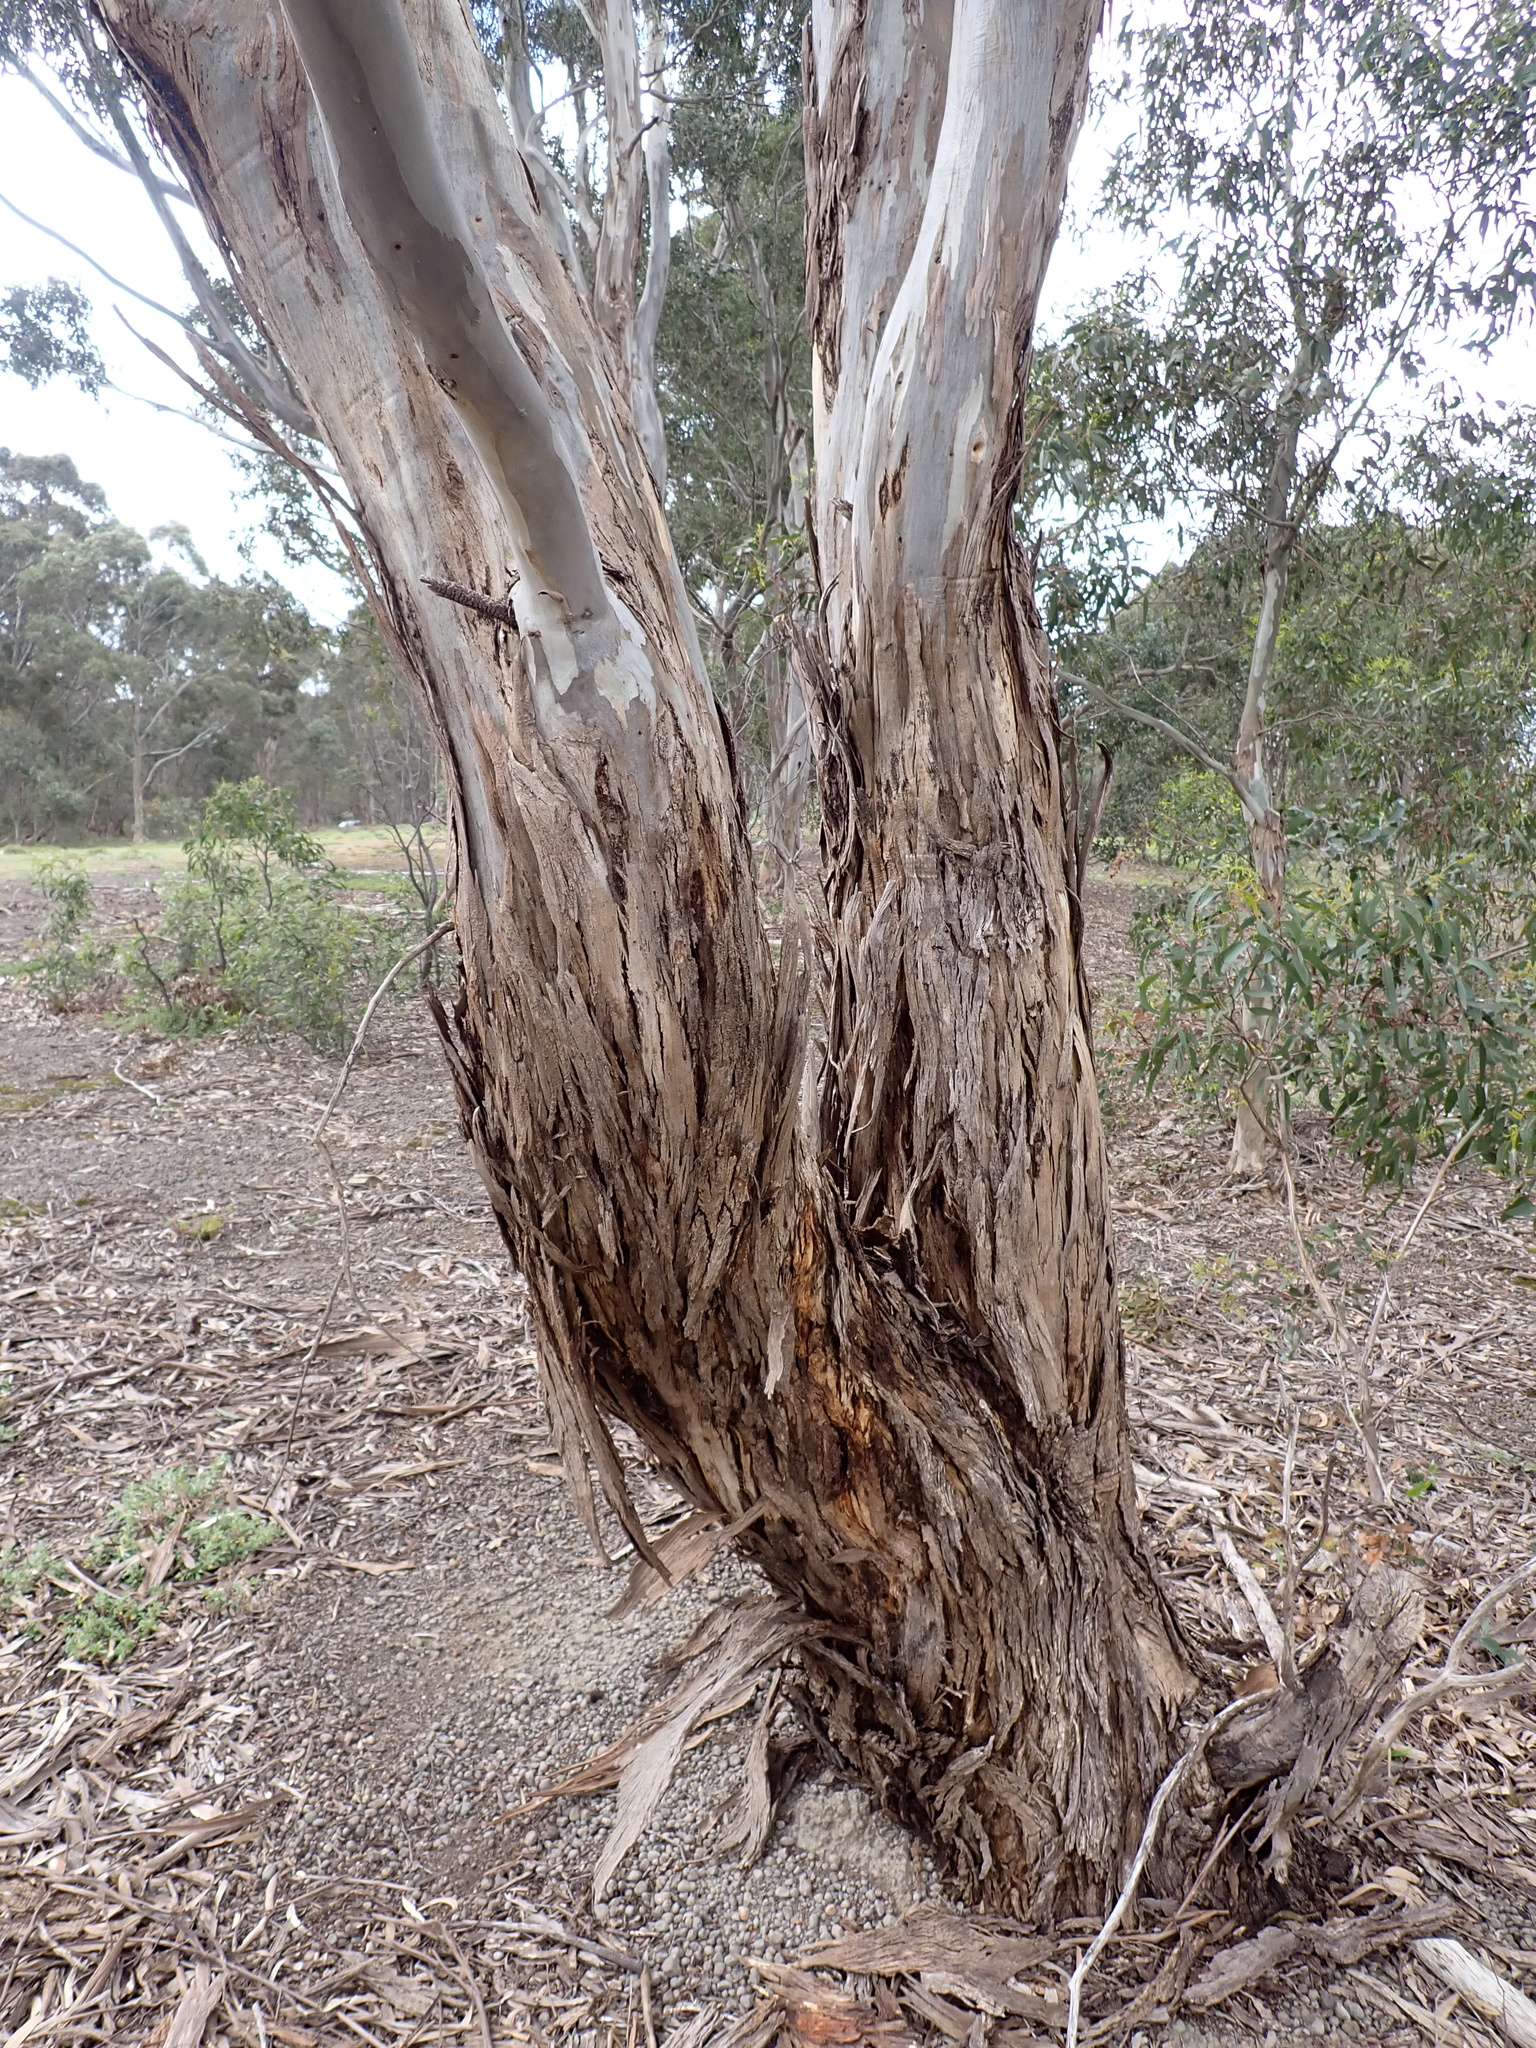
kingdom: Plantae
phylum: Tracheophyta
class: Magnoliopsida
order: Myrtales
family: Myrtaceae
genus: Eucalyptus
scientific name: Eucalyptus leucoxylon
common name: Blue gum
